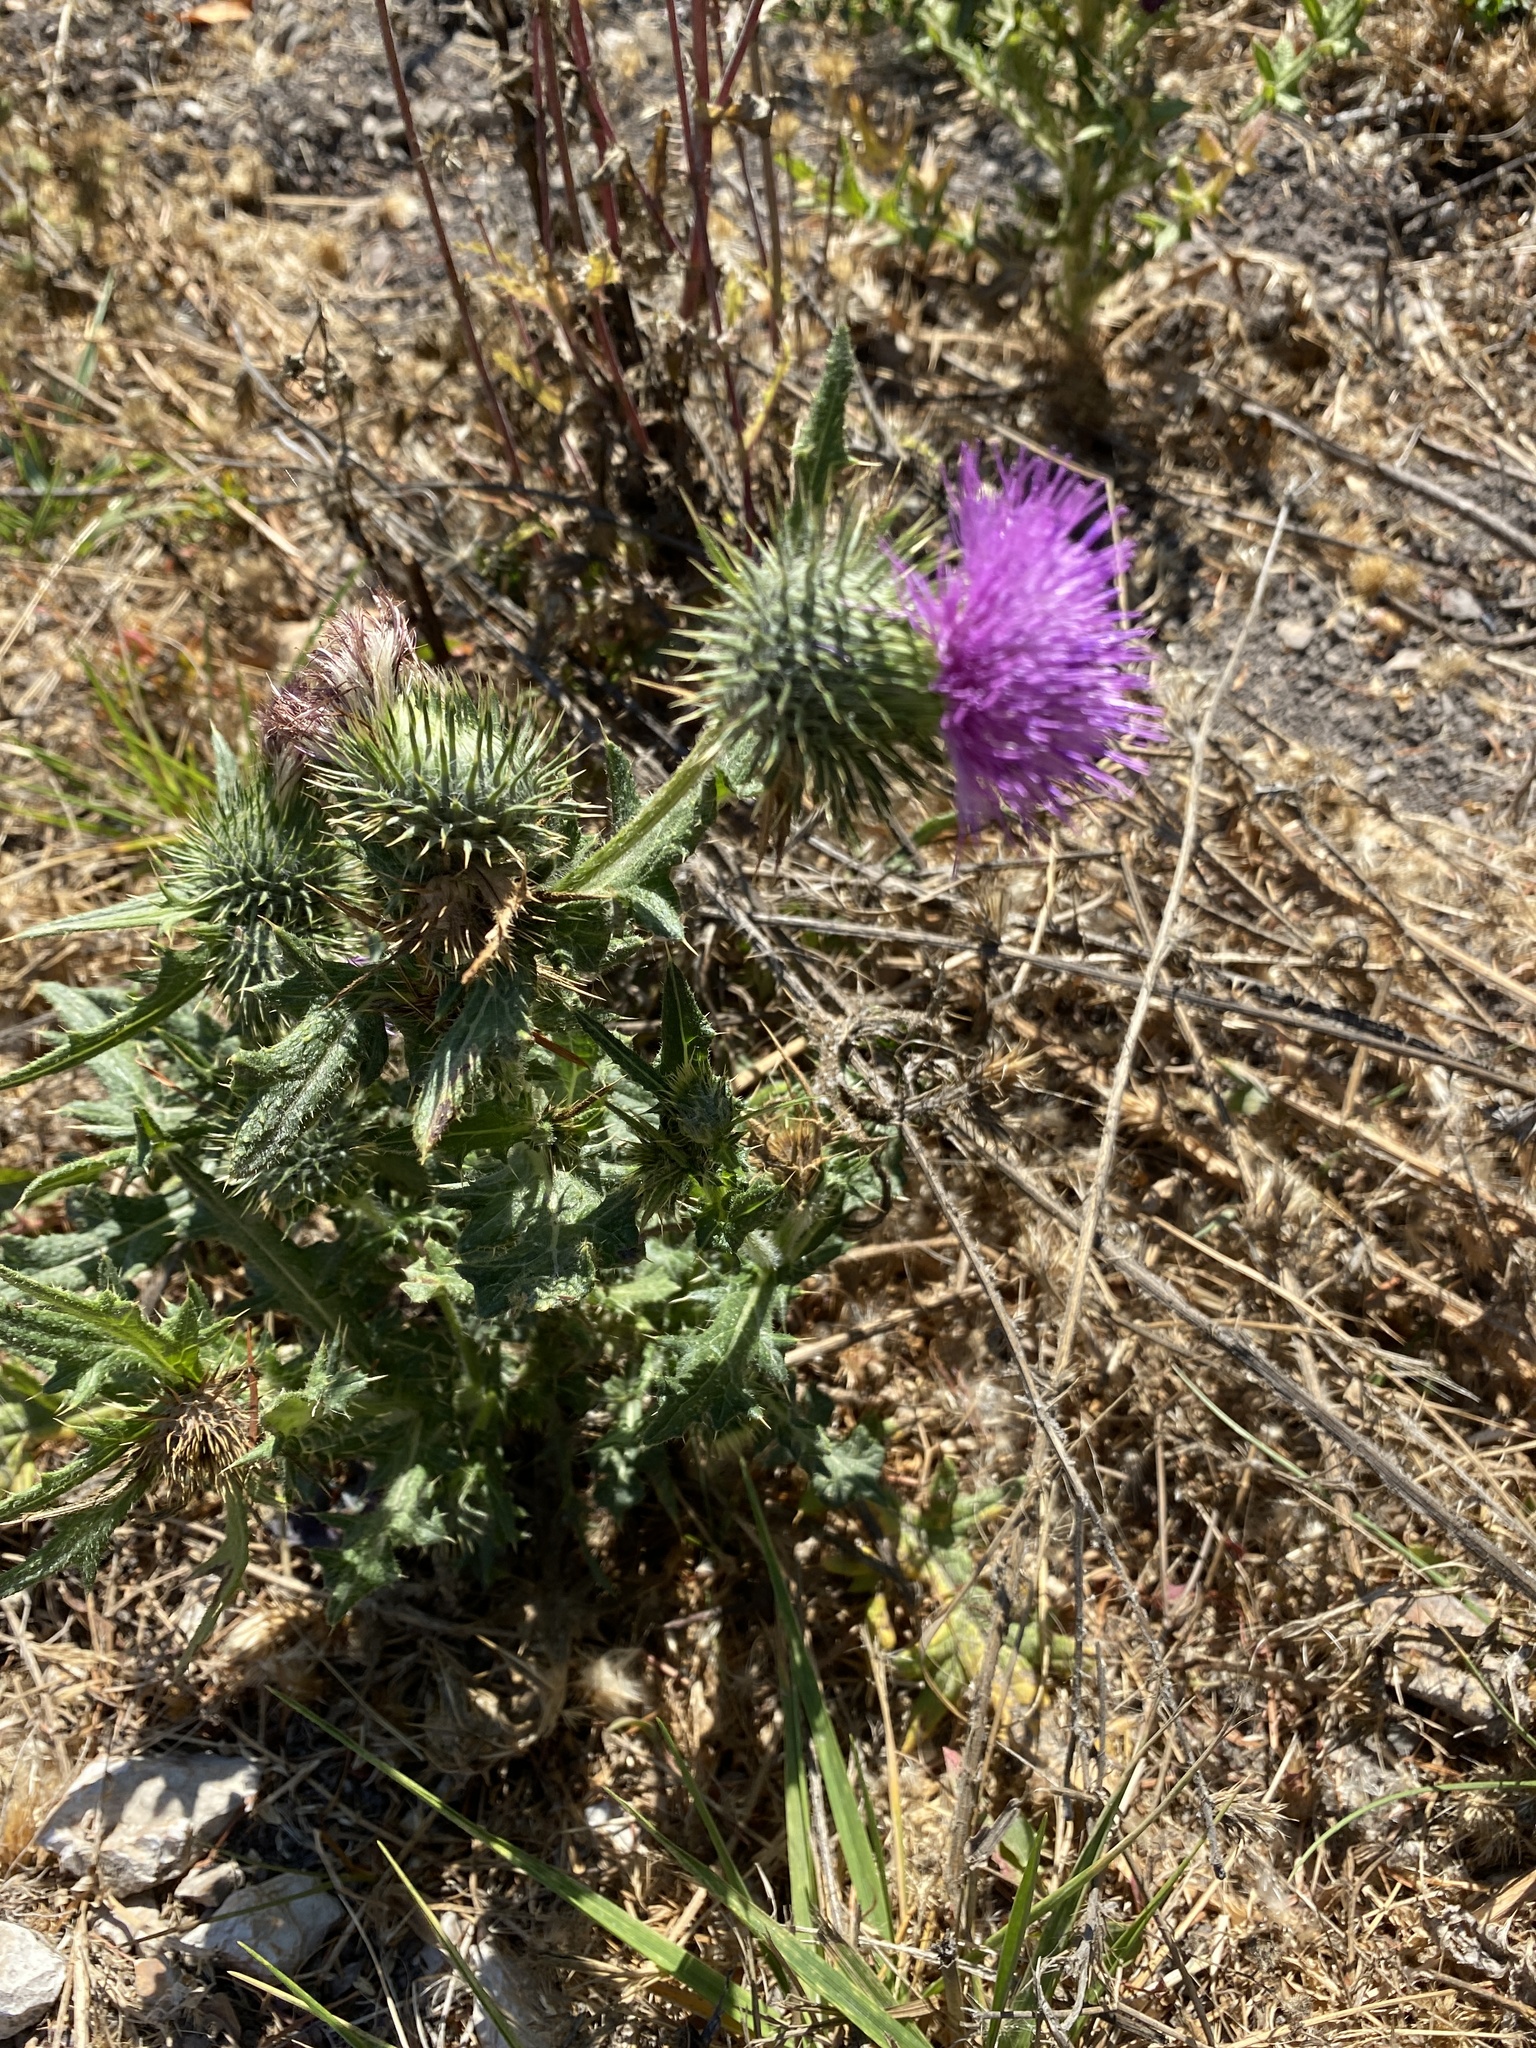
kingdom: Plantae
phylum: Tracheophyta
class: Magnoliopsida
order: Asterales
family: Asteraceae
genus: Cirsium
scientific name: Cirsium vulgare
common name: Bull thistle
